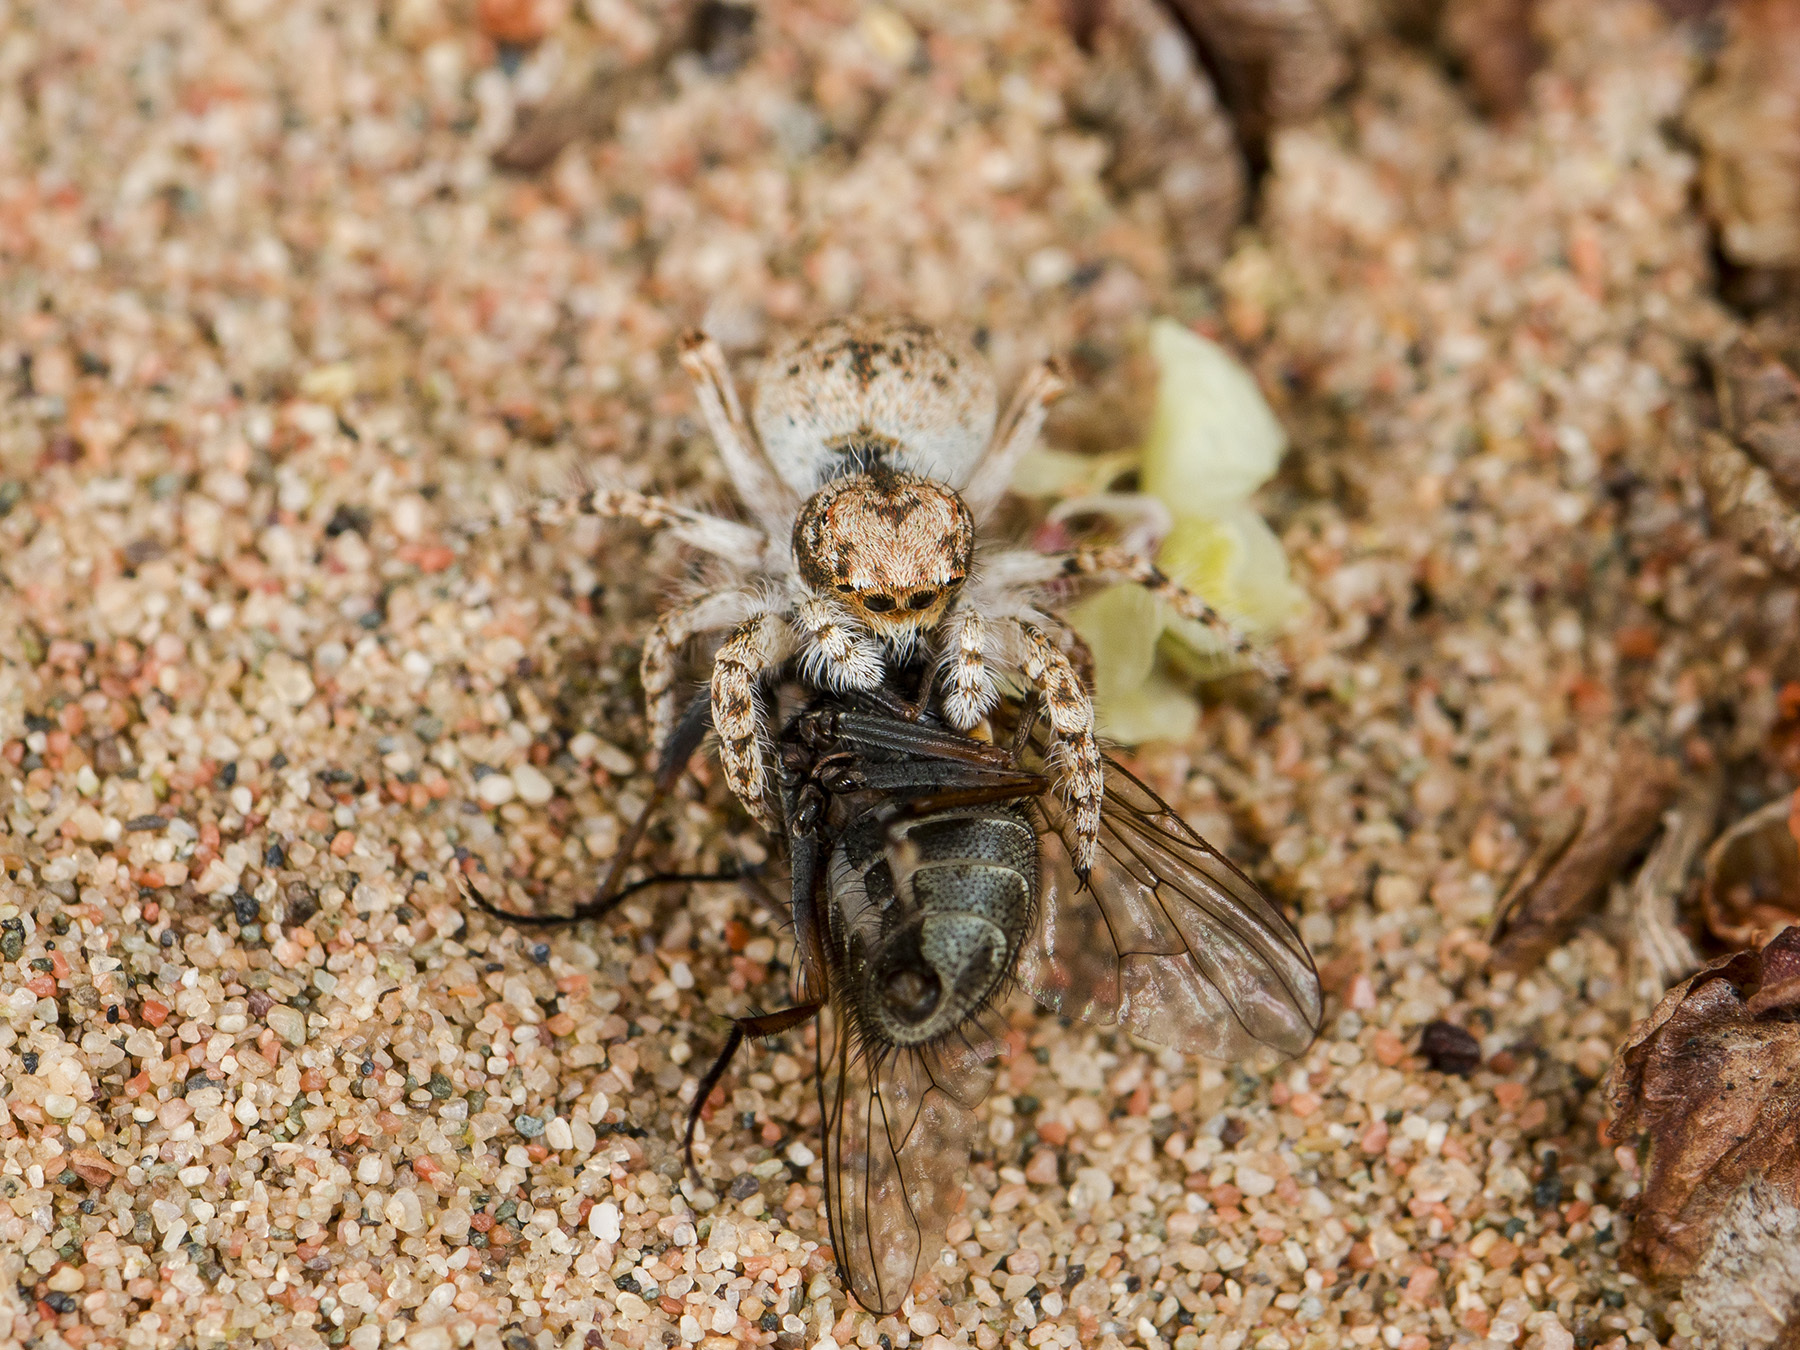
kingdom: Animalia
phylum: Arthropoda
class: Arachnida
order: Araneae
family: Salticidae
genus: Yllenus
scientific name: Yllenus uiguricus
